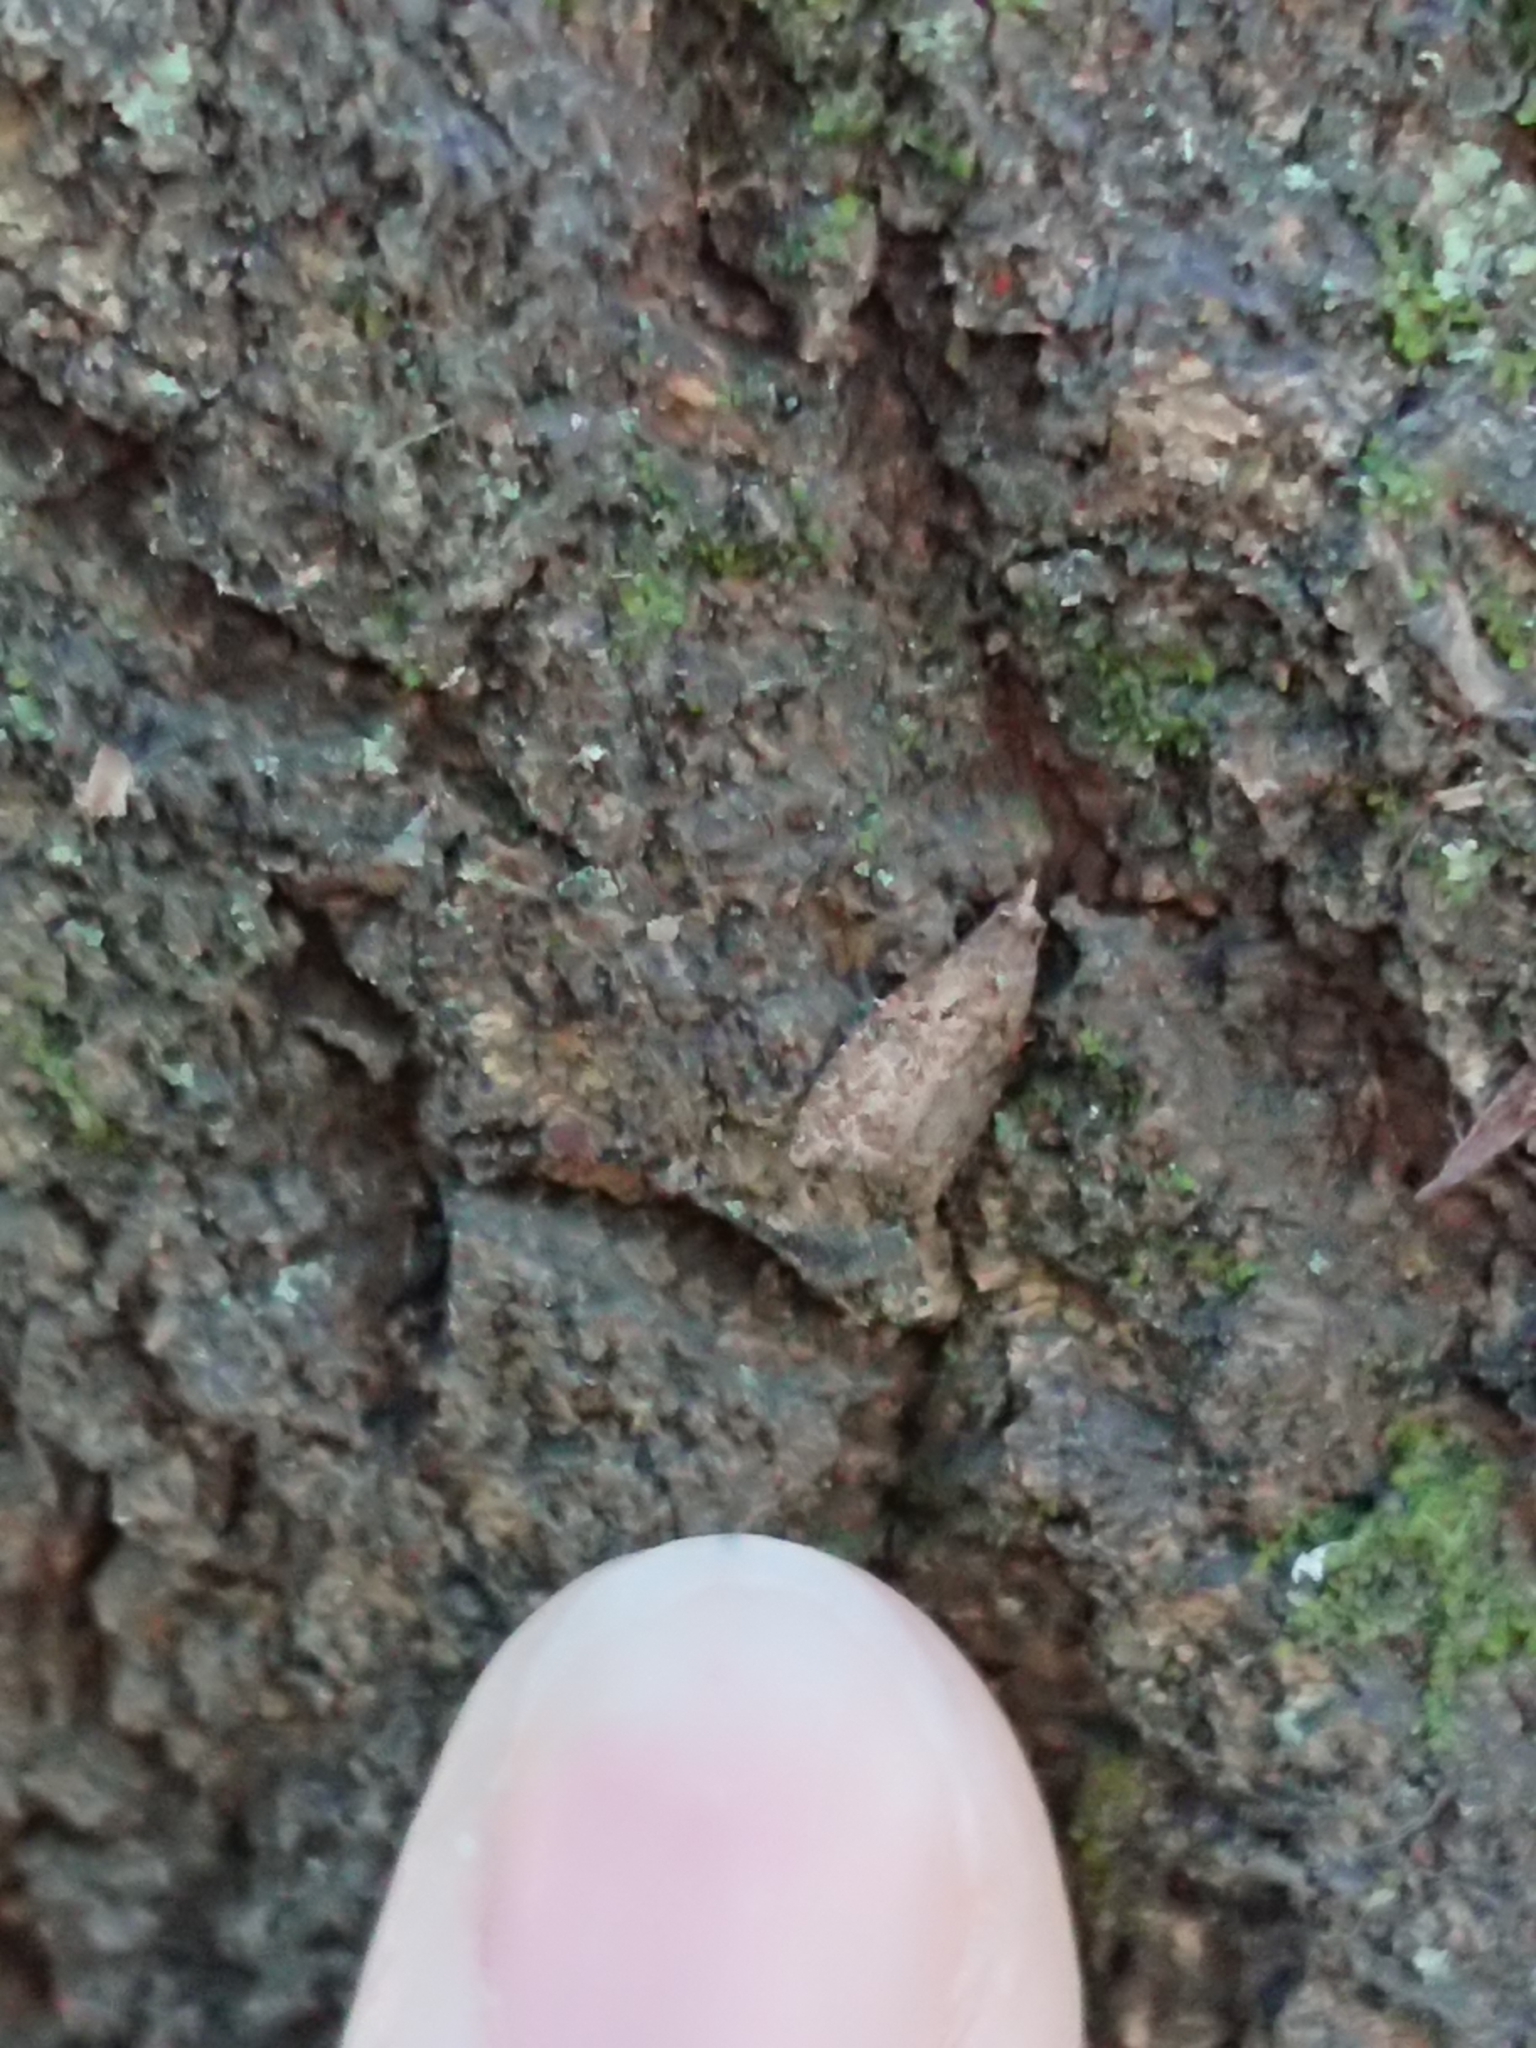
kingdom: Animalia
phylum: Arthropoda
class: Insecta
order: Lepidoptera
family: Tortricidae
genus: Capua
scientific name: Capua intractana
